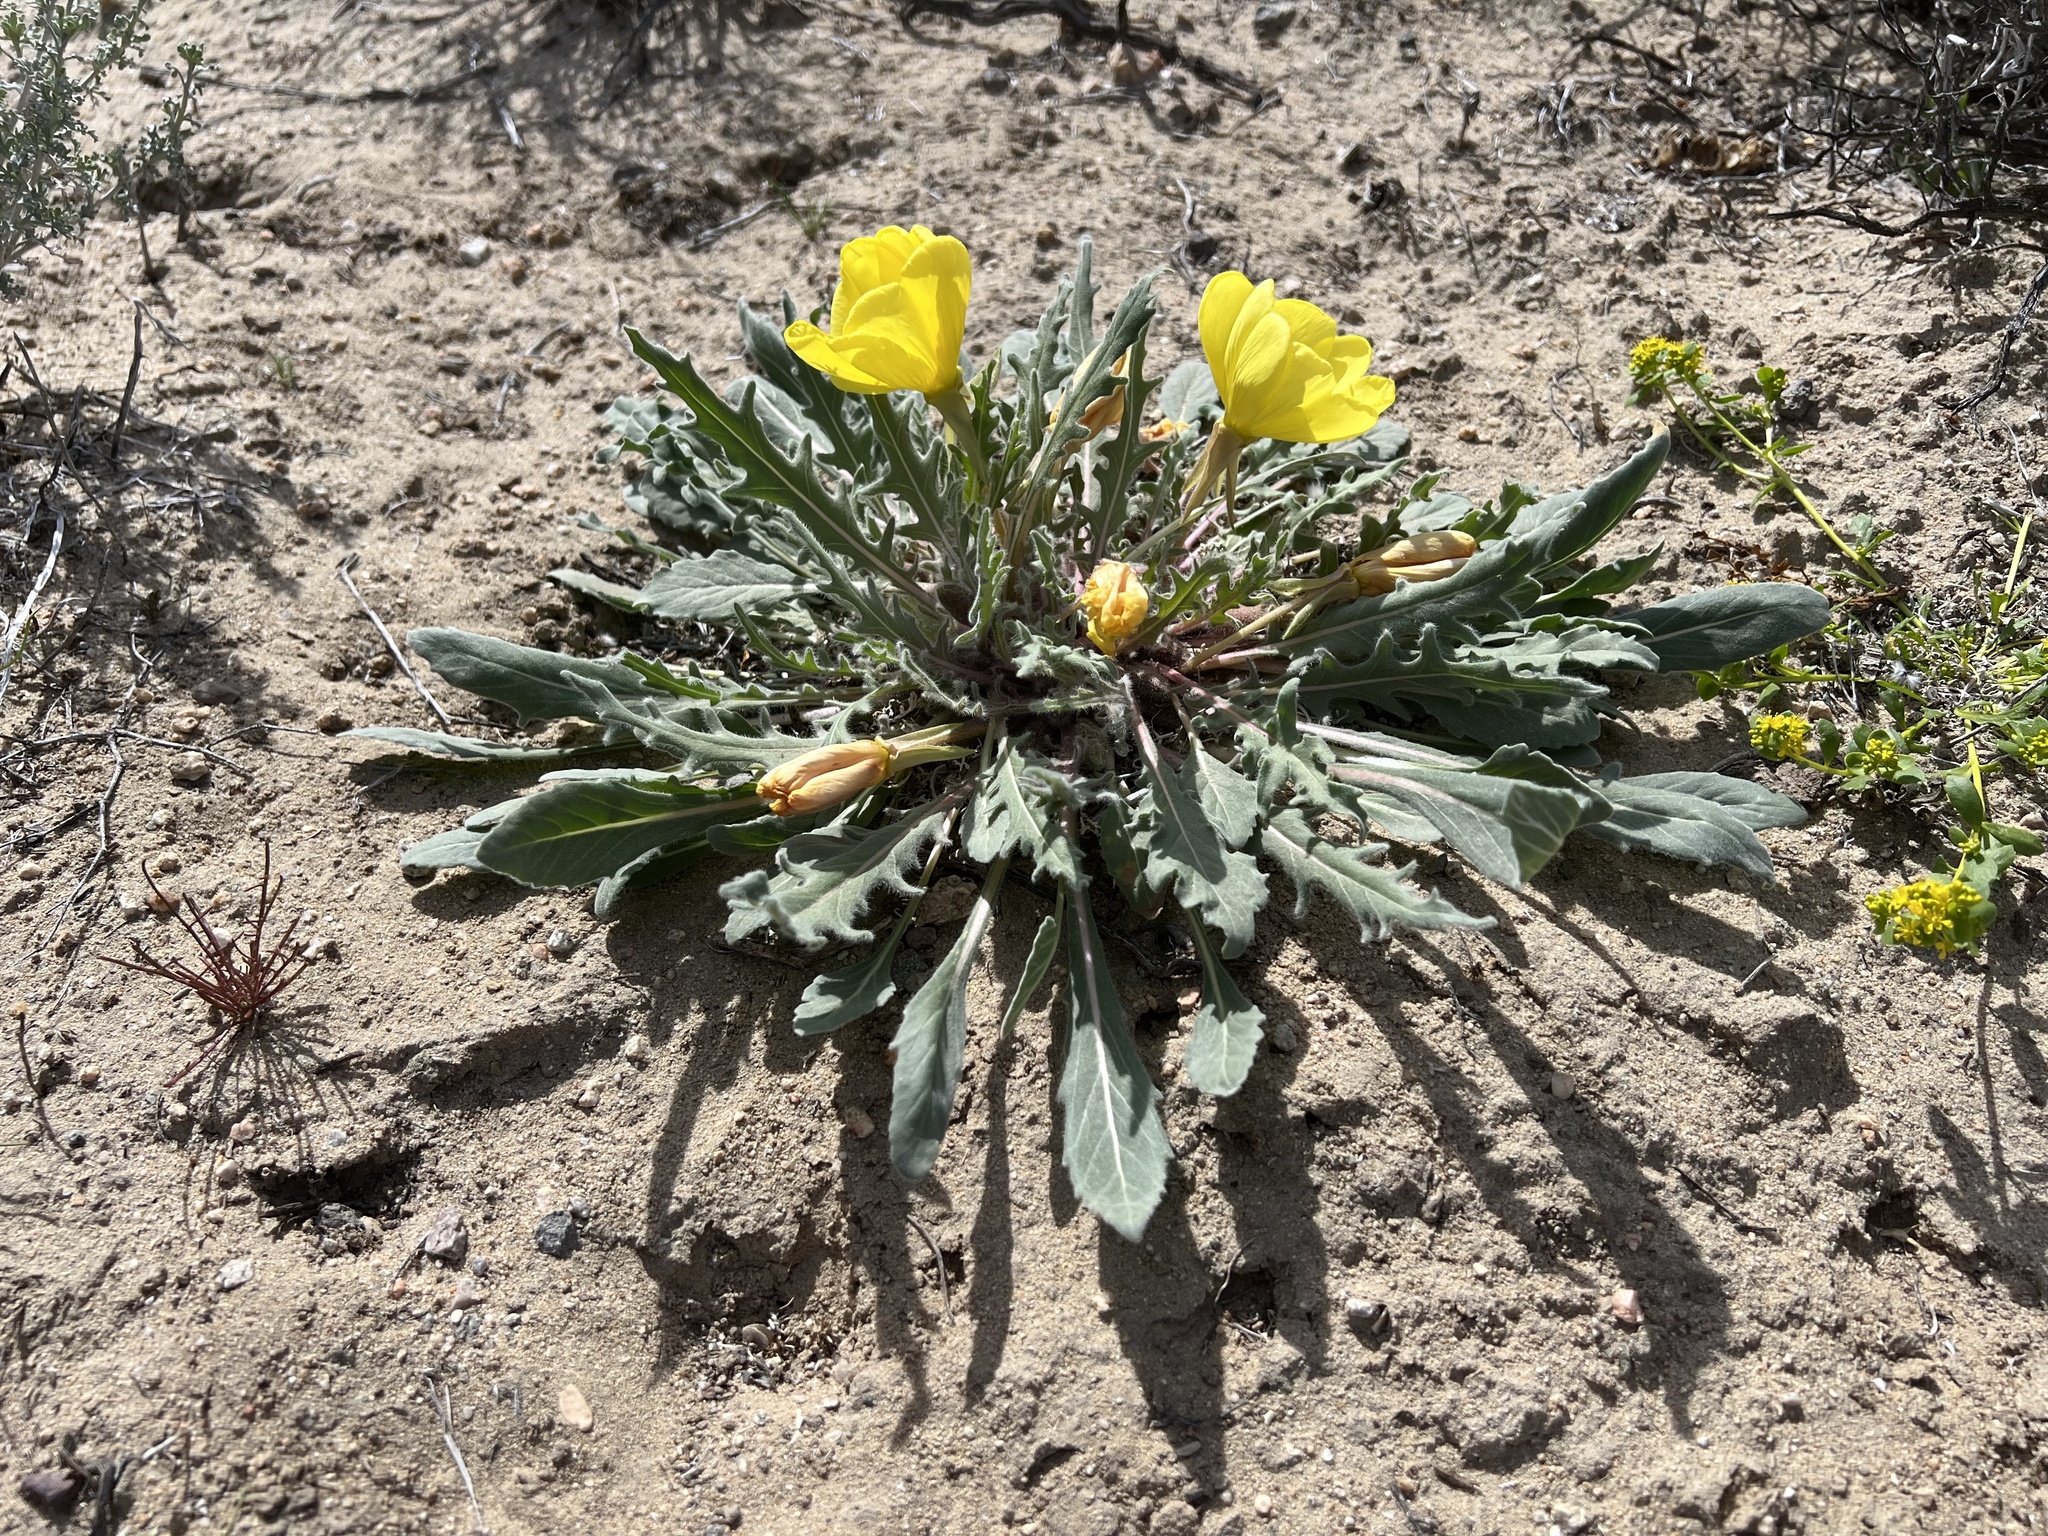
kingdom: Plantae
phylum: Tracheophyta
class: Magnoliopsida
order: Myrtales
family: Onagraceae
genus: Oenothera
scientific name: Oenothera primiveris
